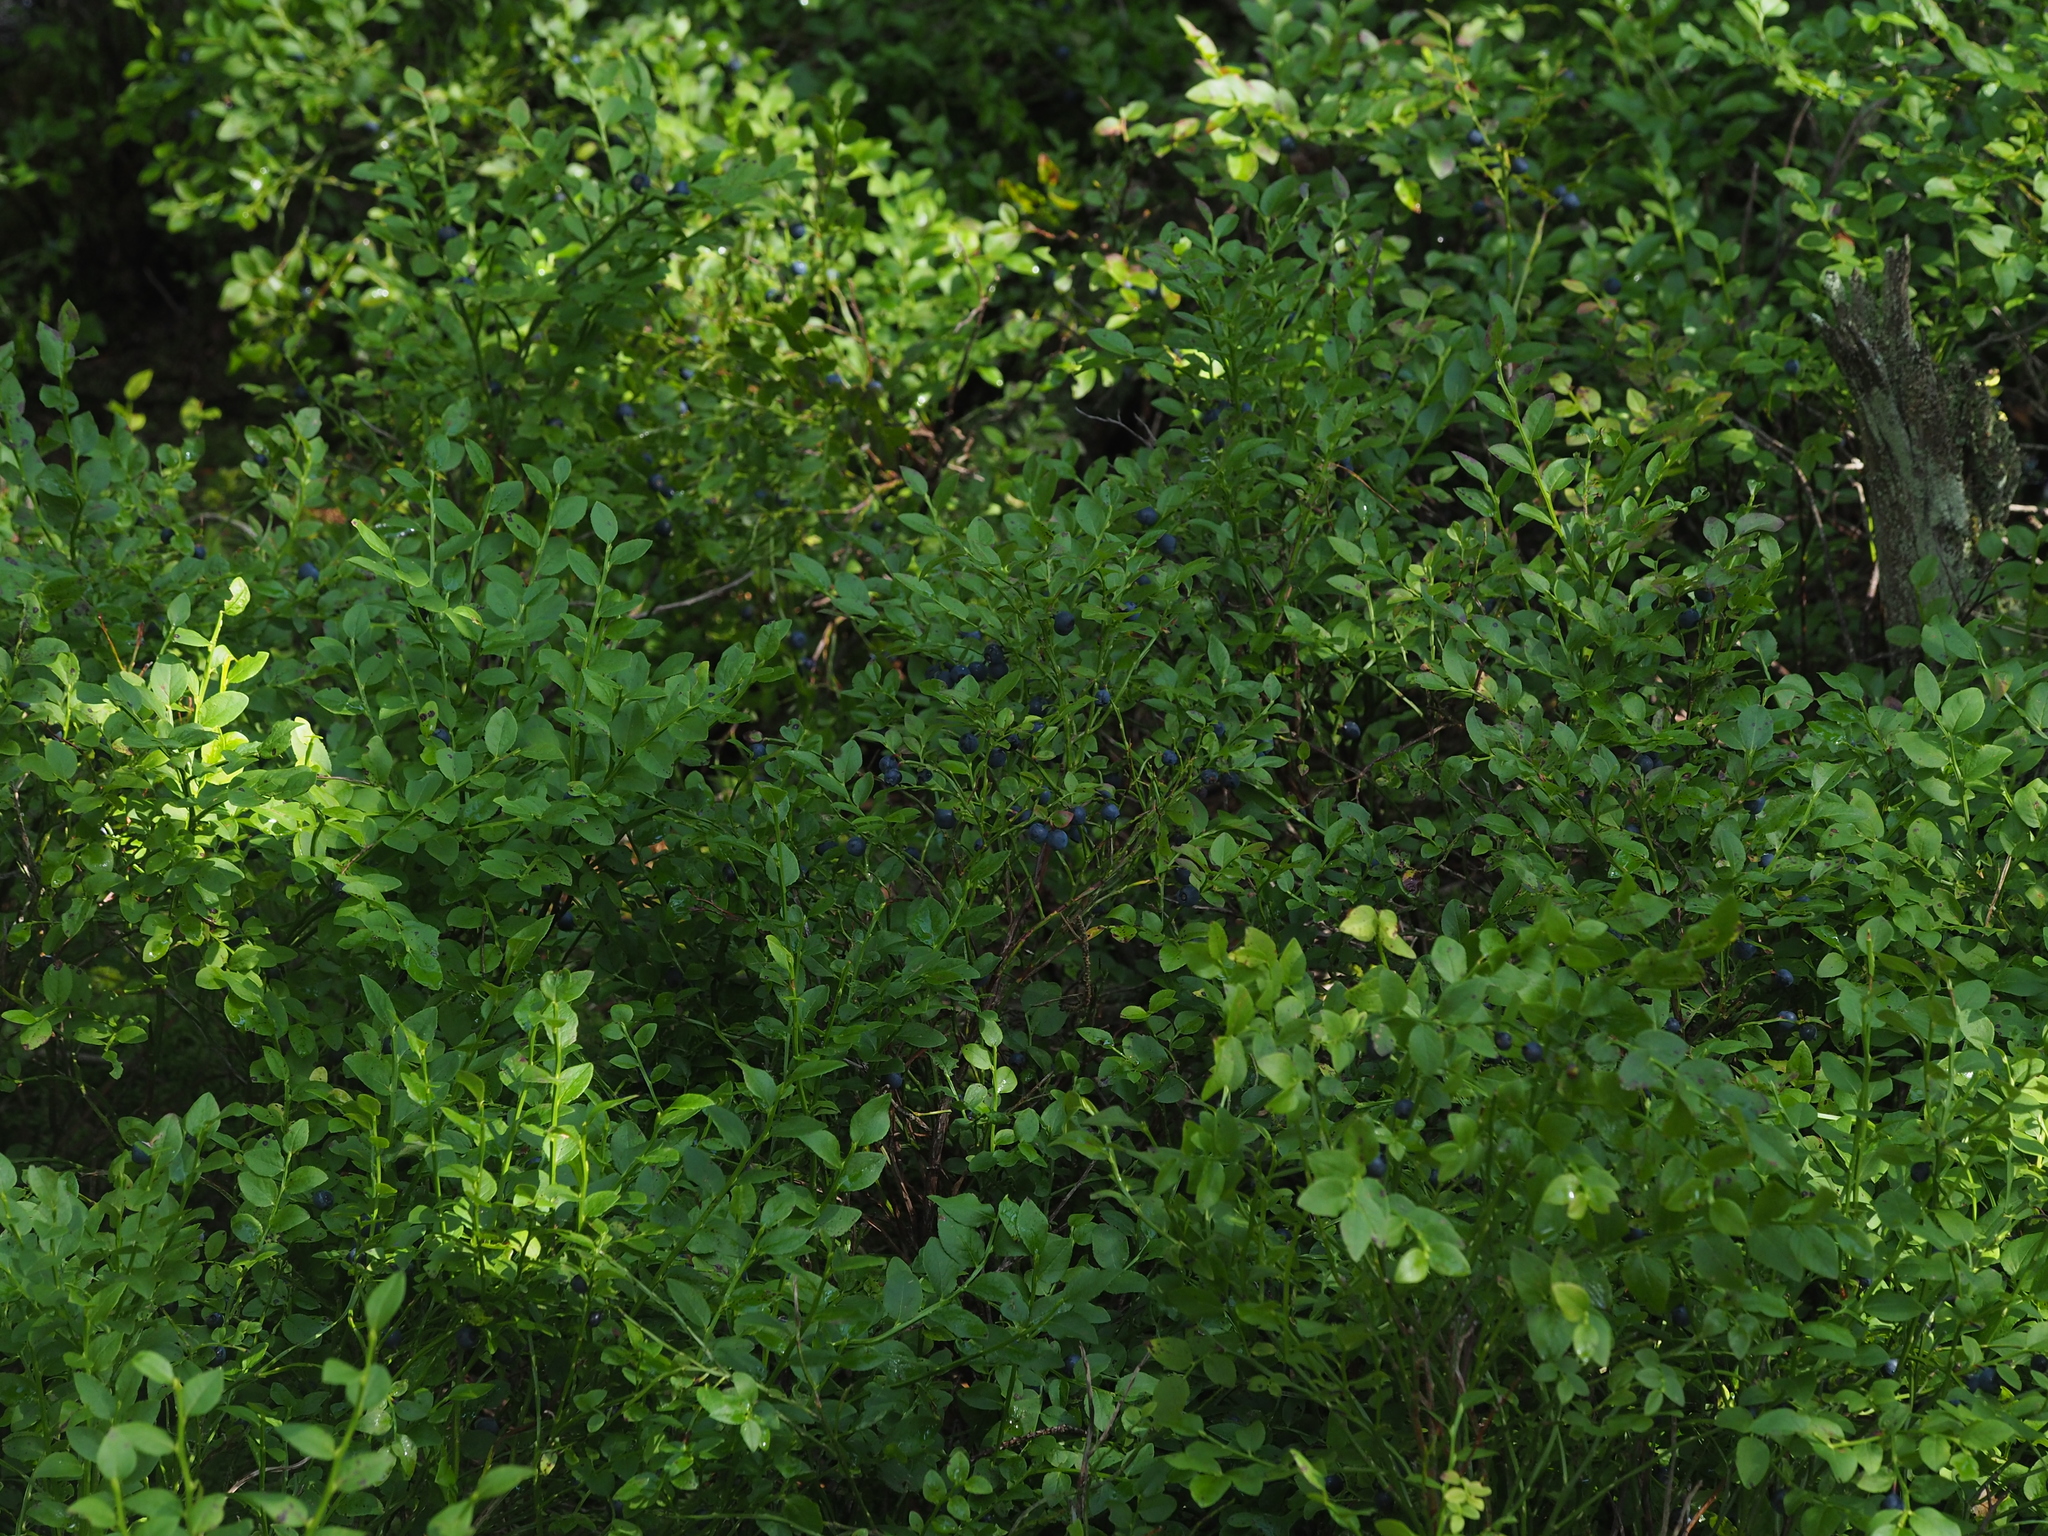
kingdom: Plantae
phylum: Tracheophyta
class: Magnoliopsida
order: Ericales
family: Ericaceae
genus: Vaccinium
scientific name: Vaccinium myrtillus
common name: Bilberry
